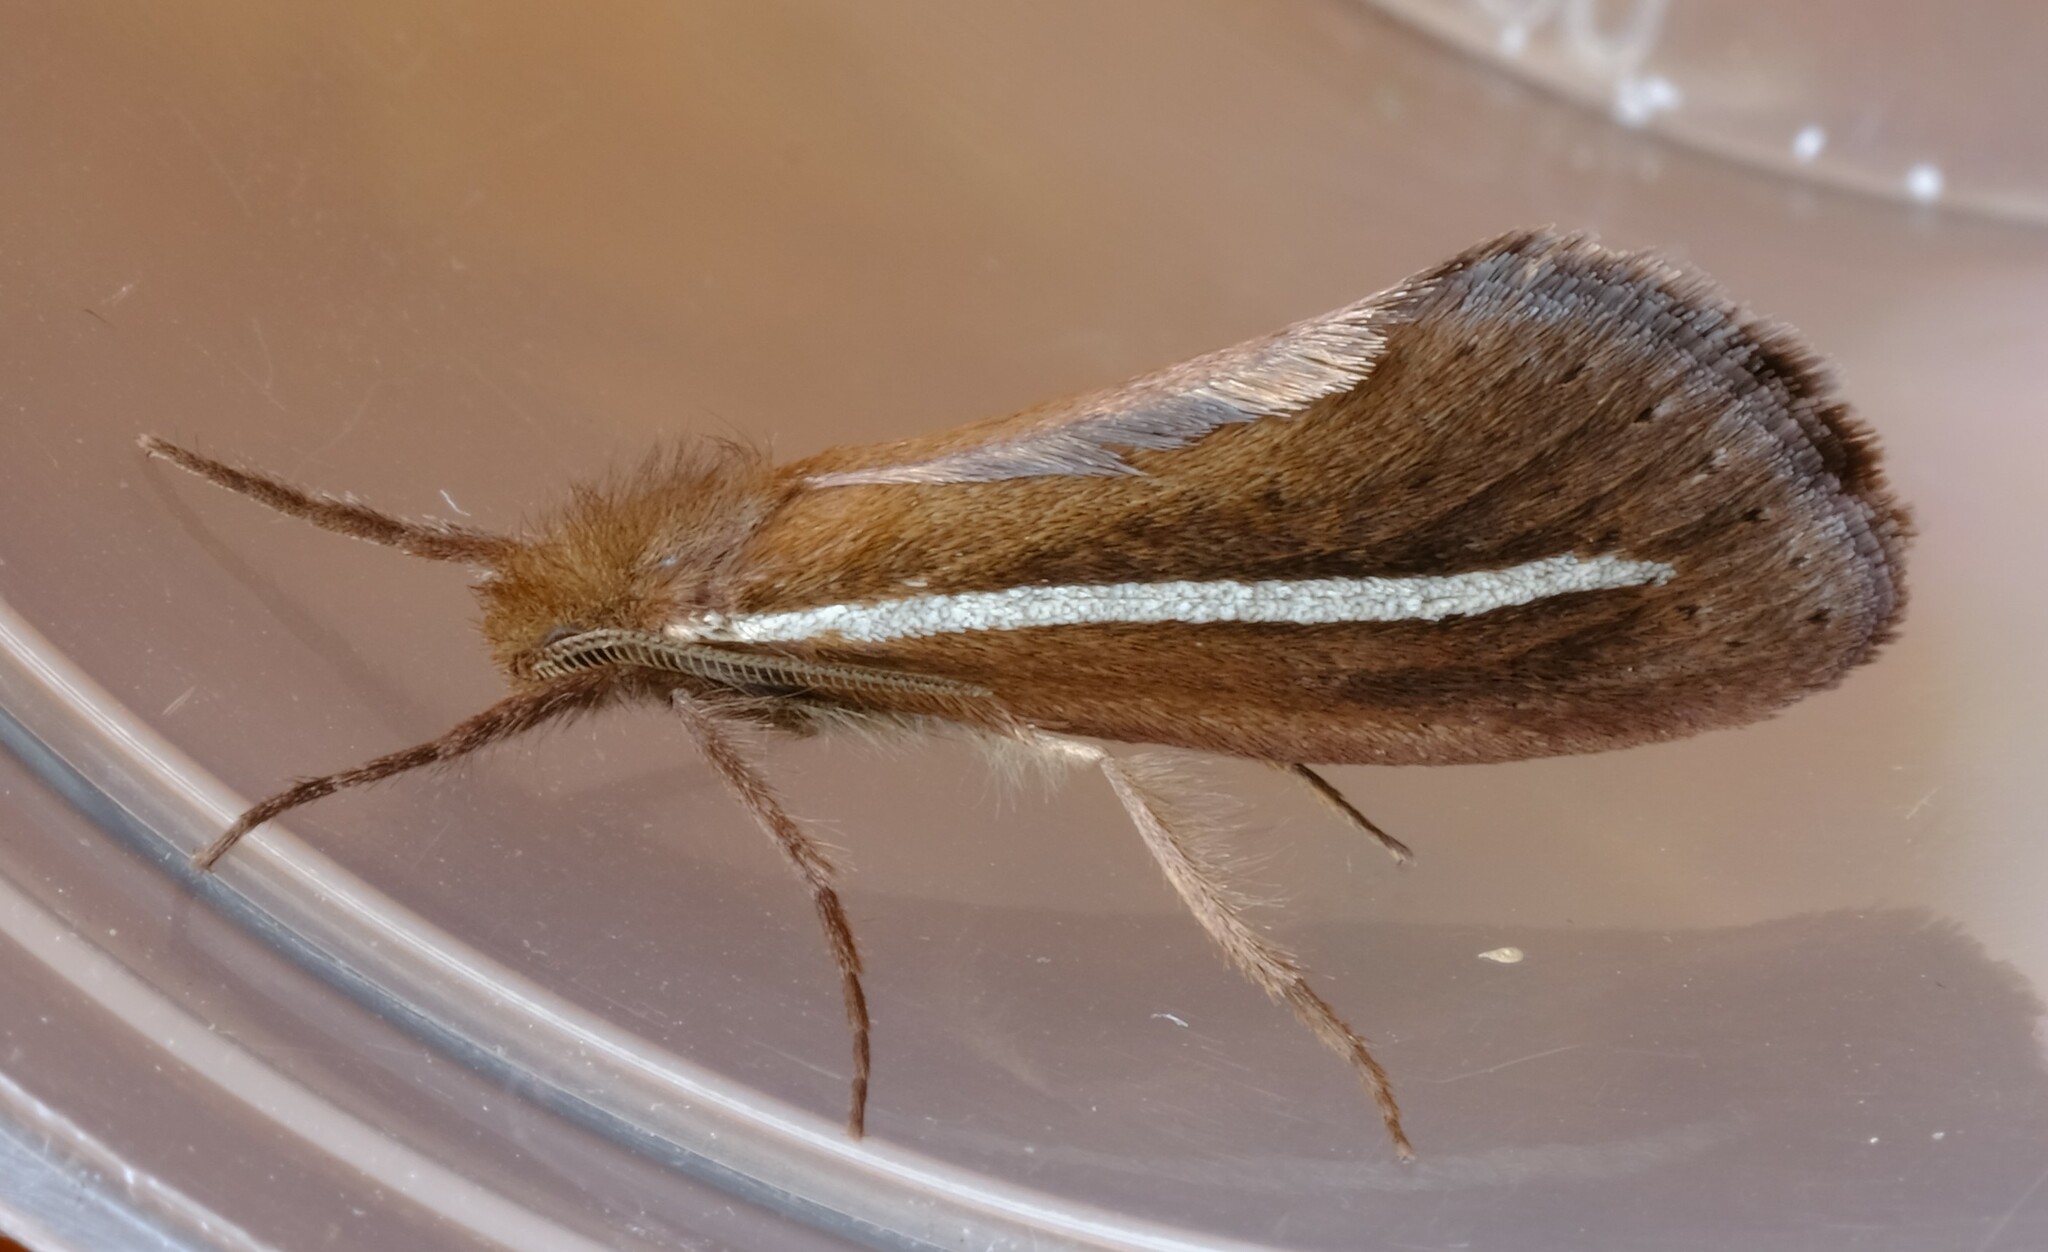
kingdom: Animalia
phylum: Arthropoda
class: Insecta
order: Lepidoptera
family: Hepialidae
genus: Fraus
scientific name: Fraus pteromela
